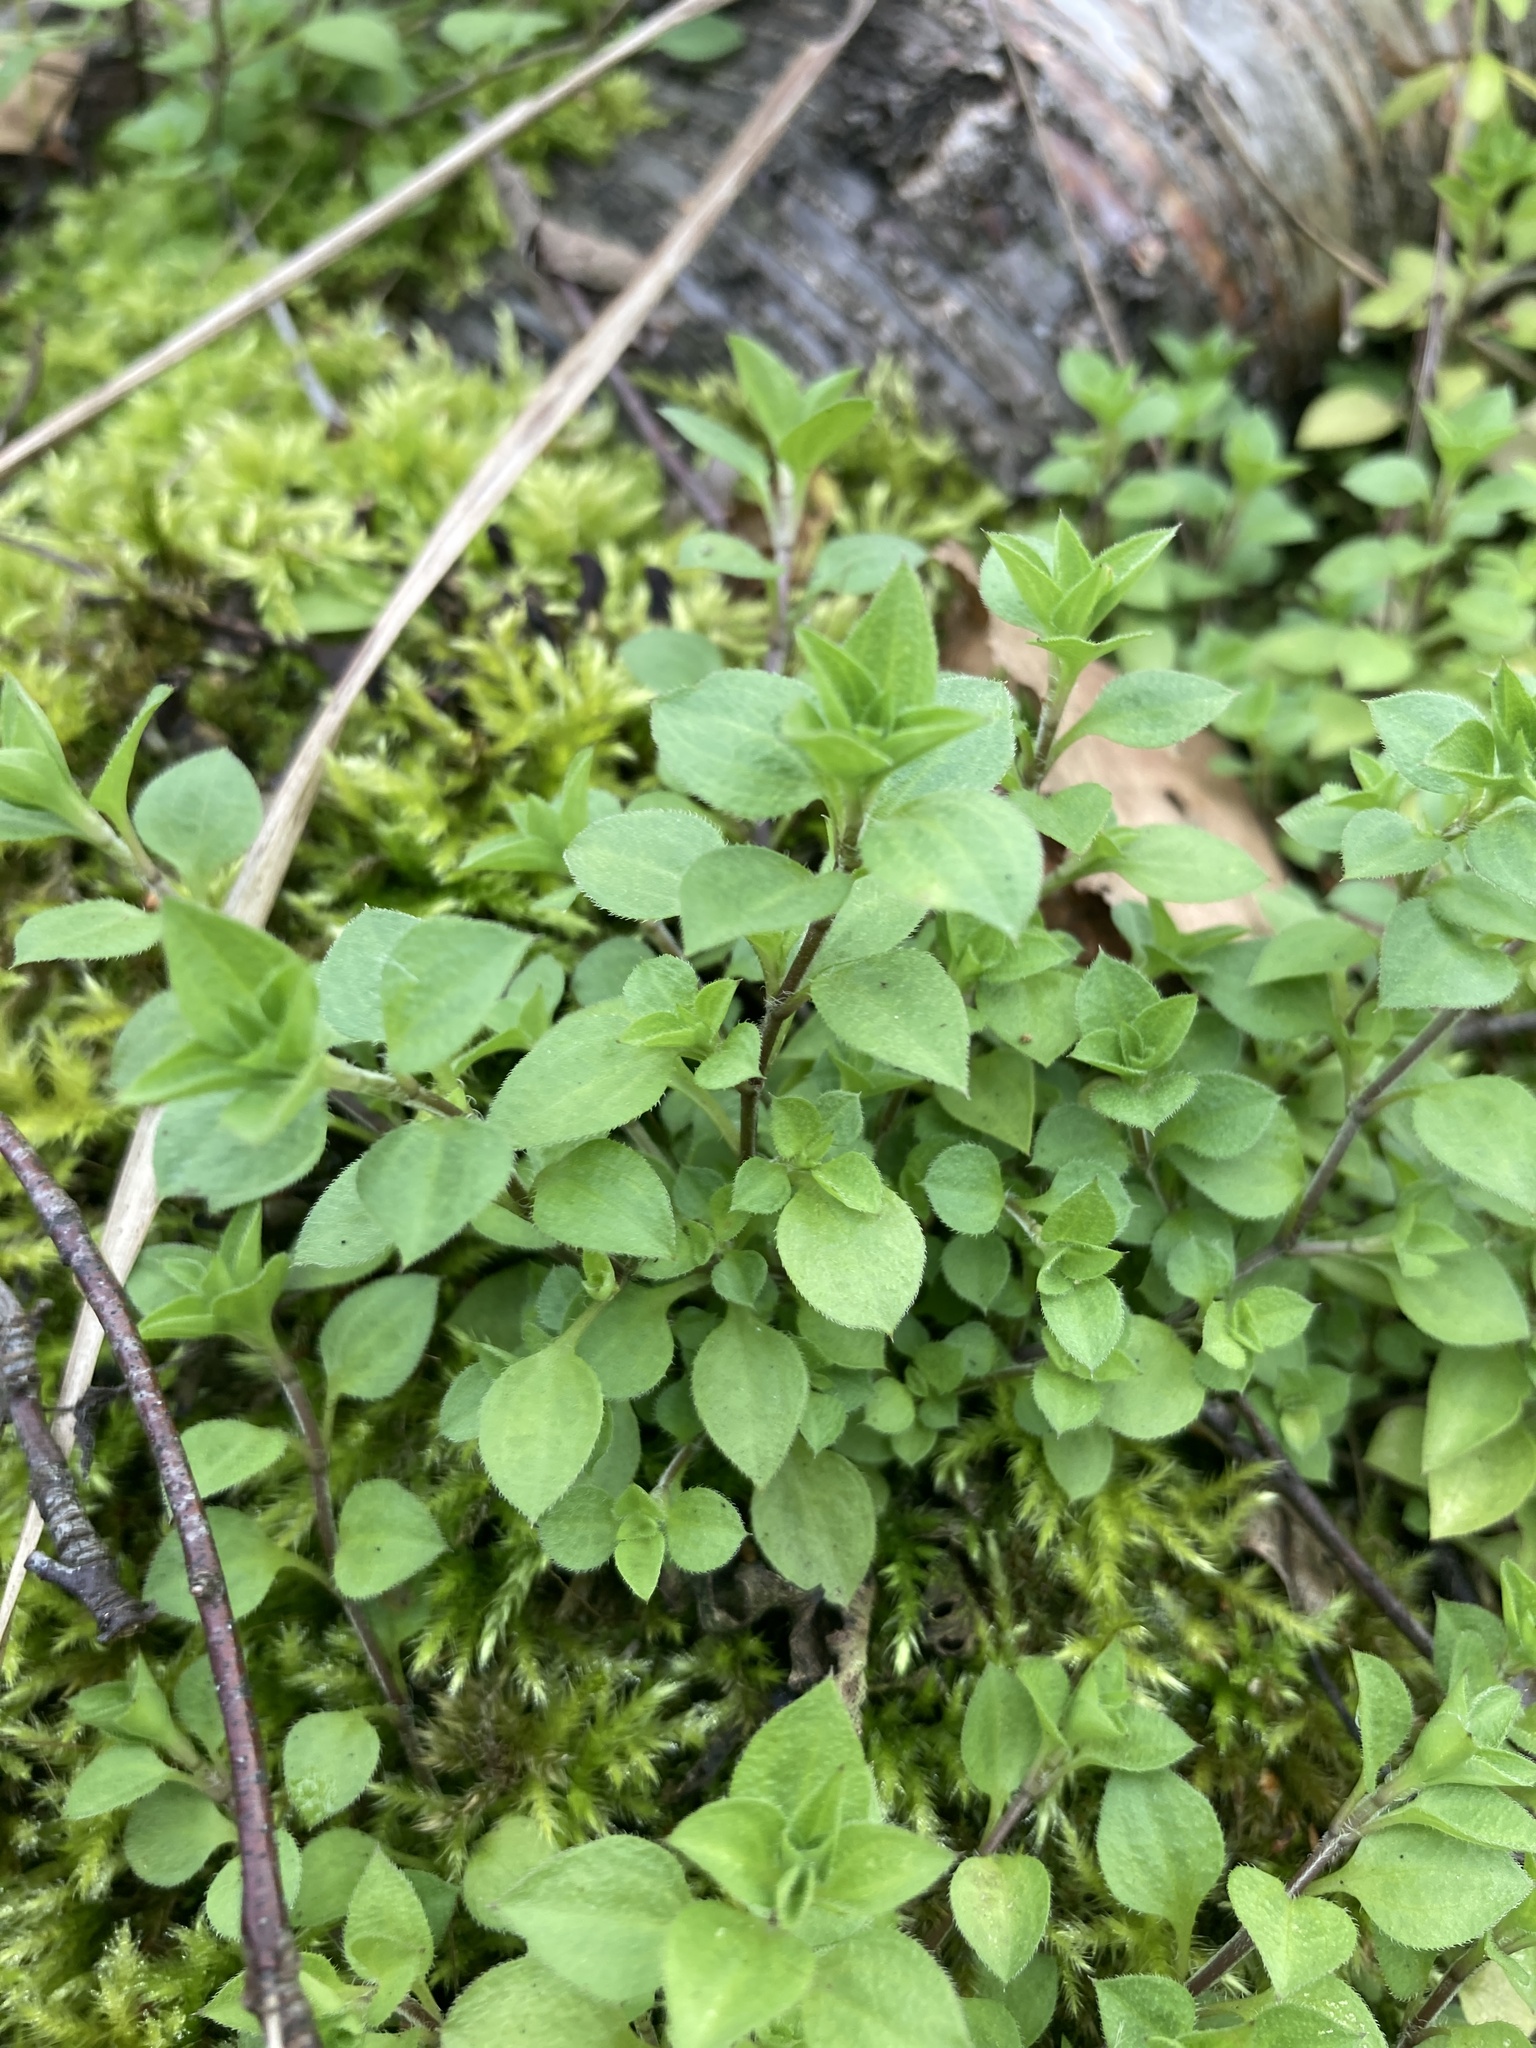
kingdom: Plantae
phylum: Tracheophyta
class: Magnoliopsida
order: Caryophyllales
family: Caryophyllaceae
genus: Moehringia
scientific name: Moehringia trinervia
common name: Three-nerved sandwort
